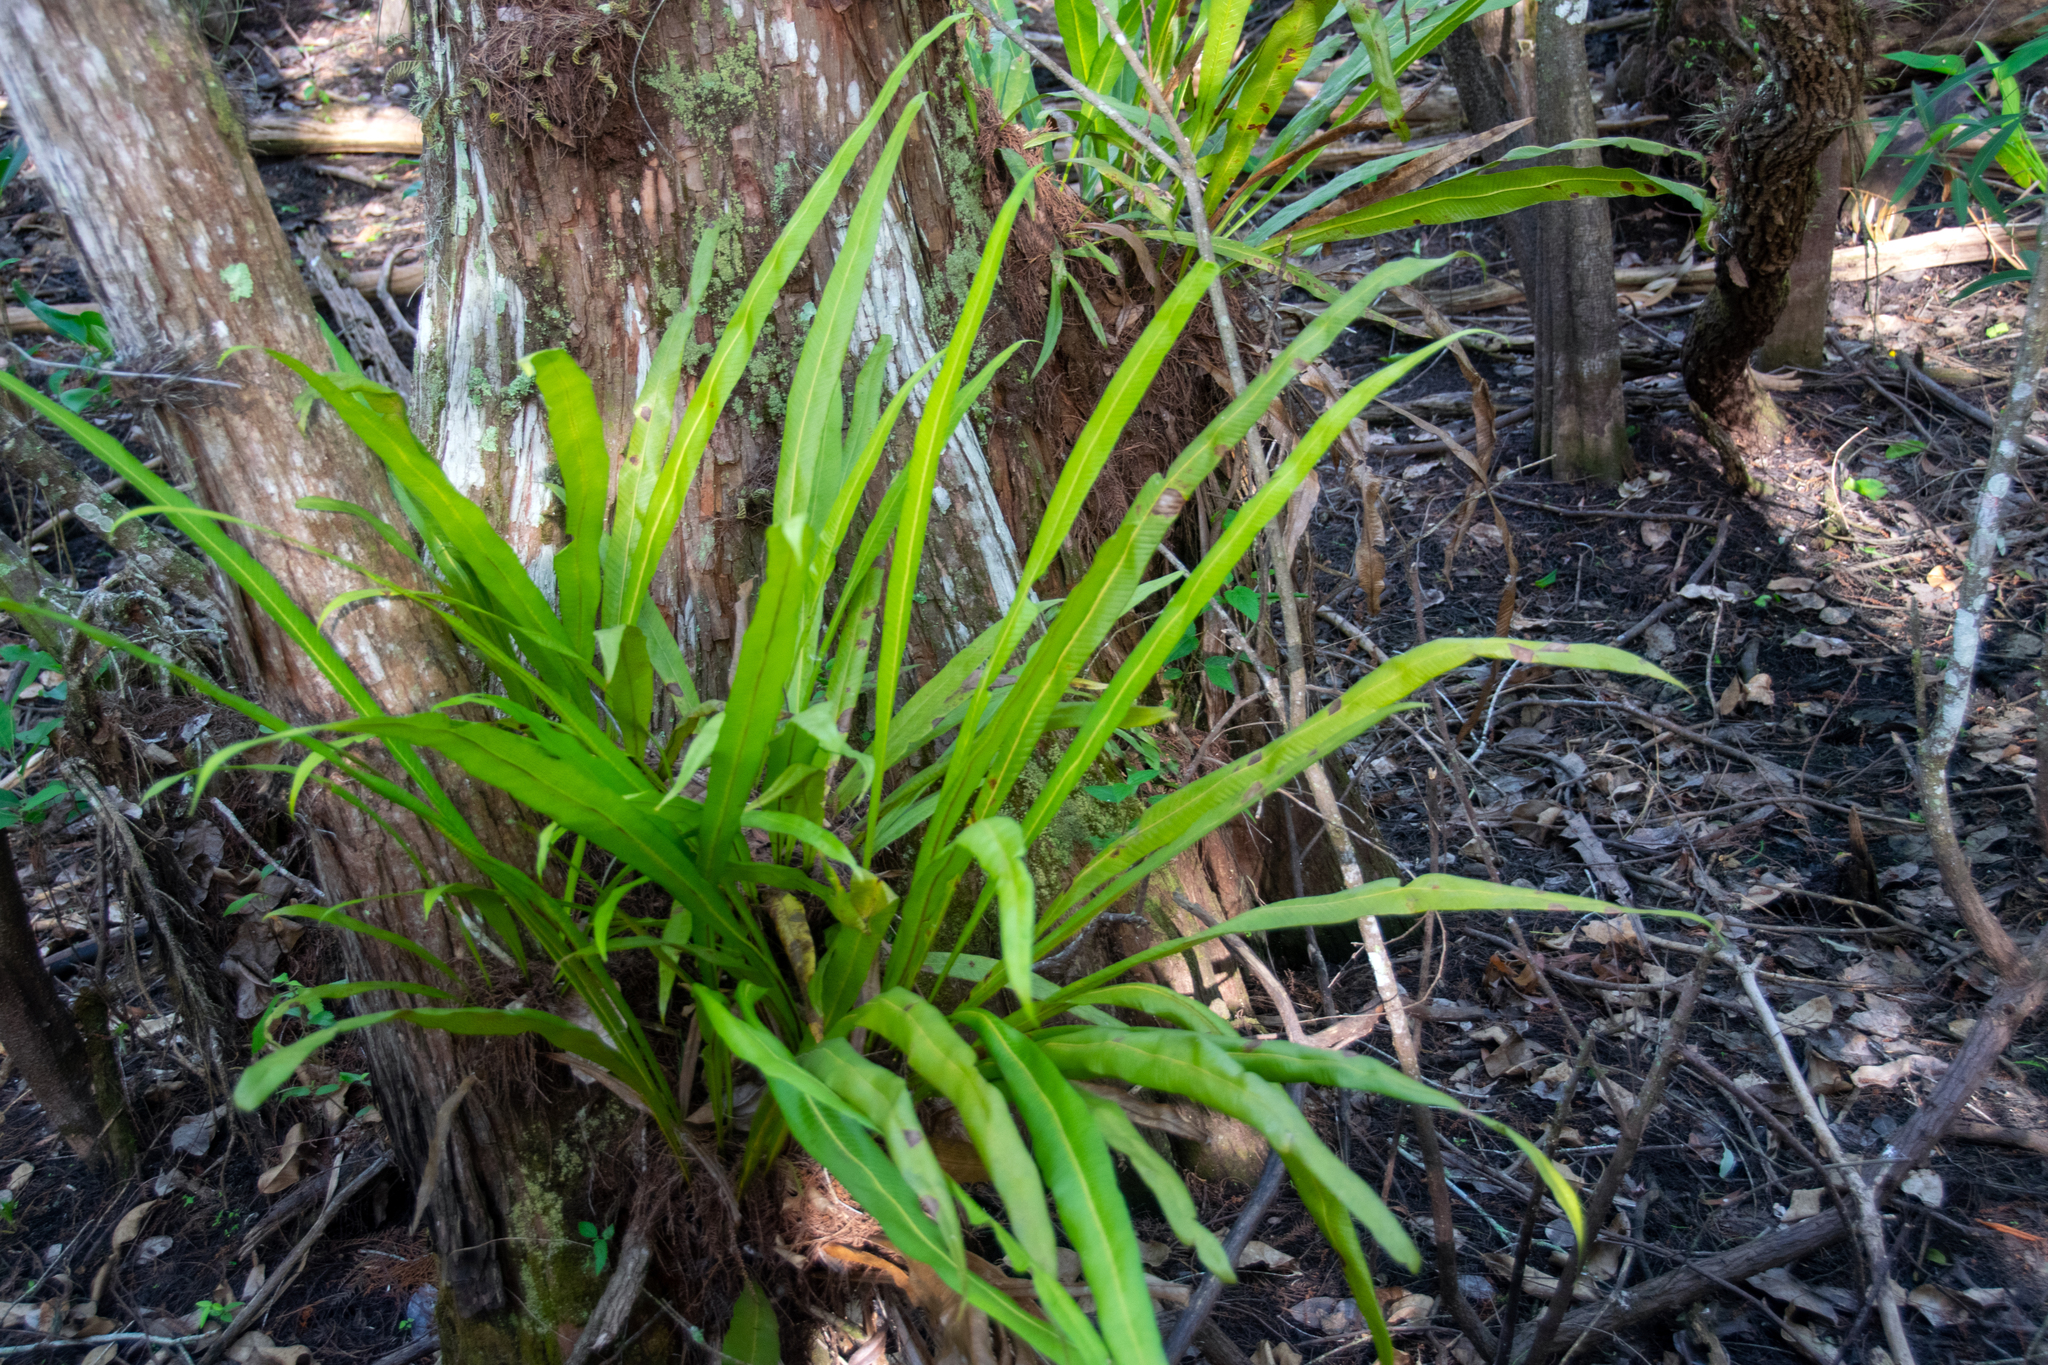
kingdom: Plantae
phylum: Tracheophyta
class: Polypodiopsida
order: Polypodiales
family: Polypodiaceae
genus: Campyloneurum
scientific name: Campyloneurum phyllitidis
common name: Cow-tongue fern
